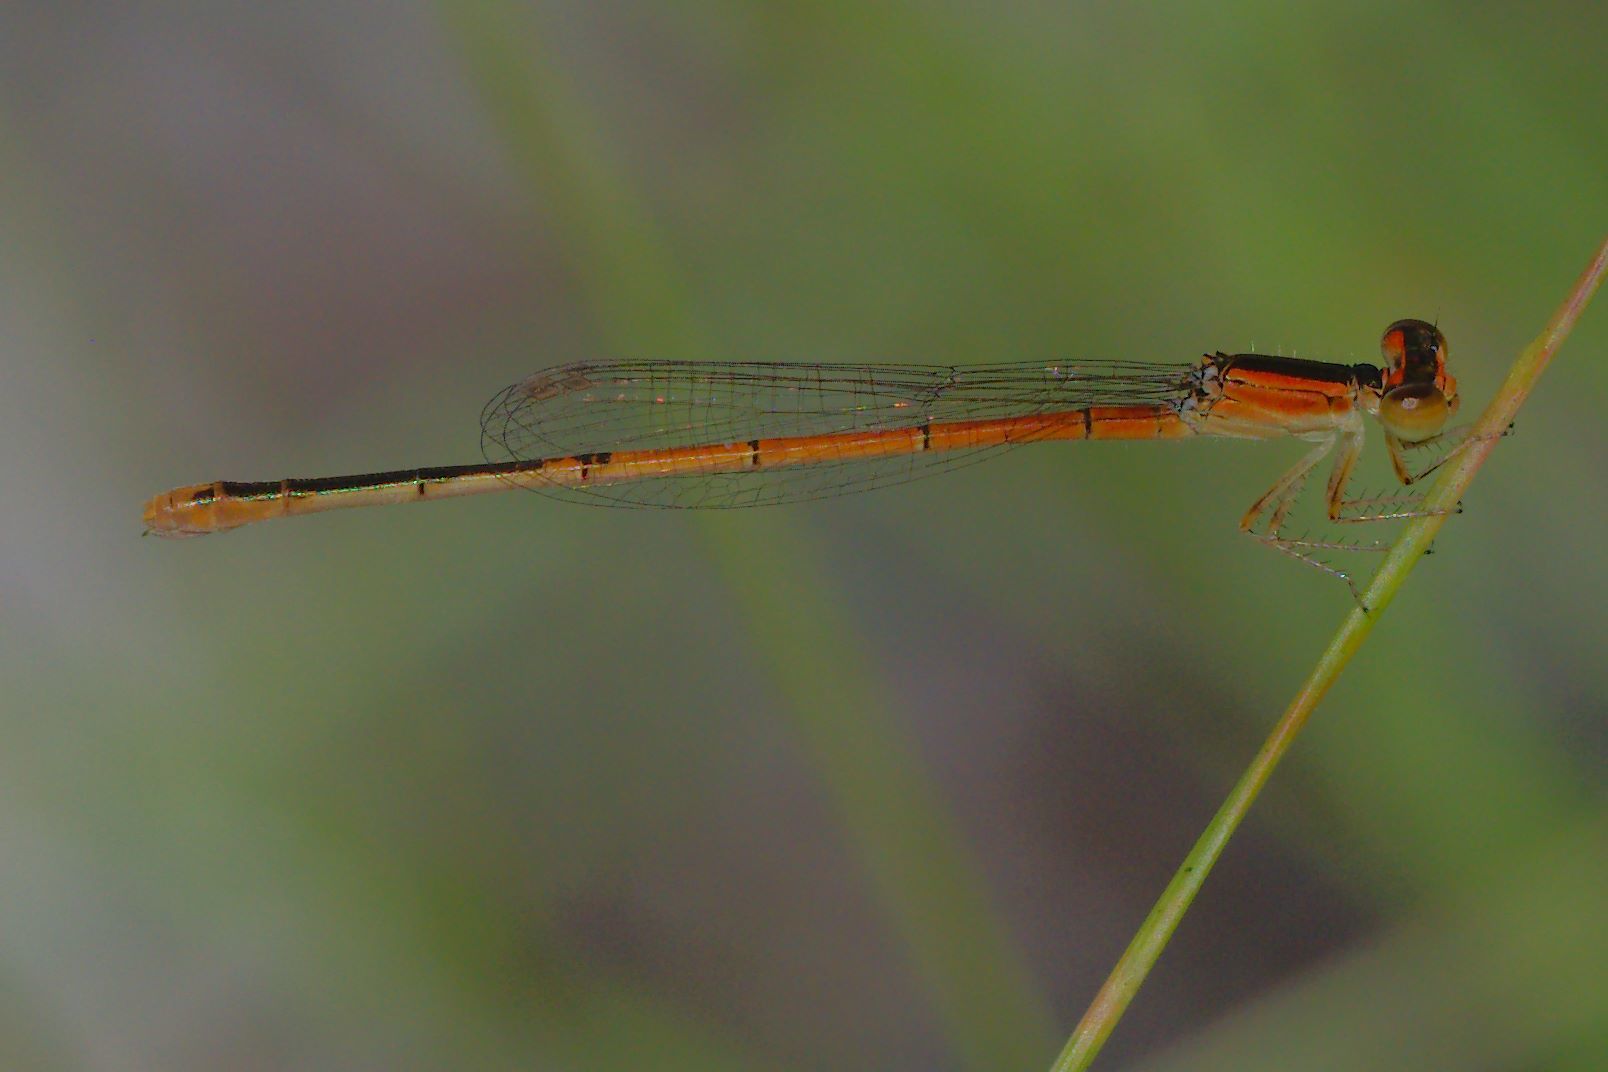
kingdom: Animalia
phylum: Arthropoda
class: Insecta
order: Odonata
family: Coenagrionidae
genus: Ischnura
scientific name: Ischnura hastata
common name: Citrine forktail
